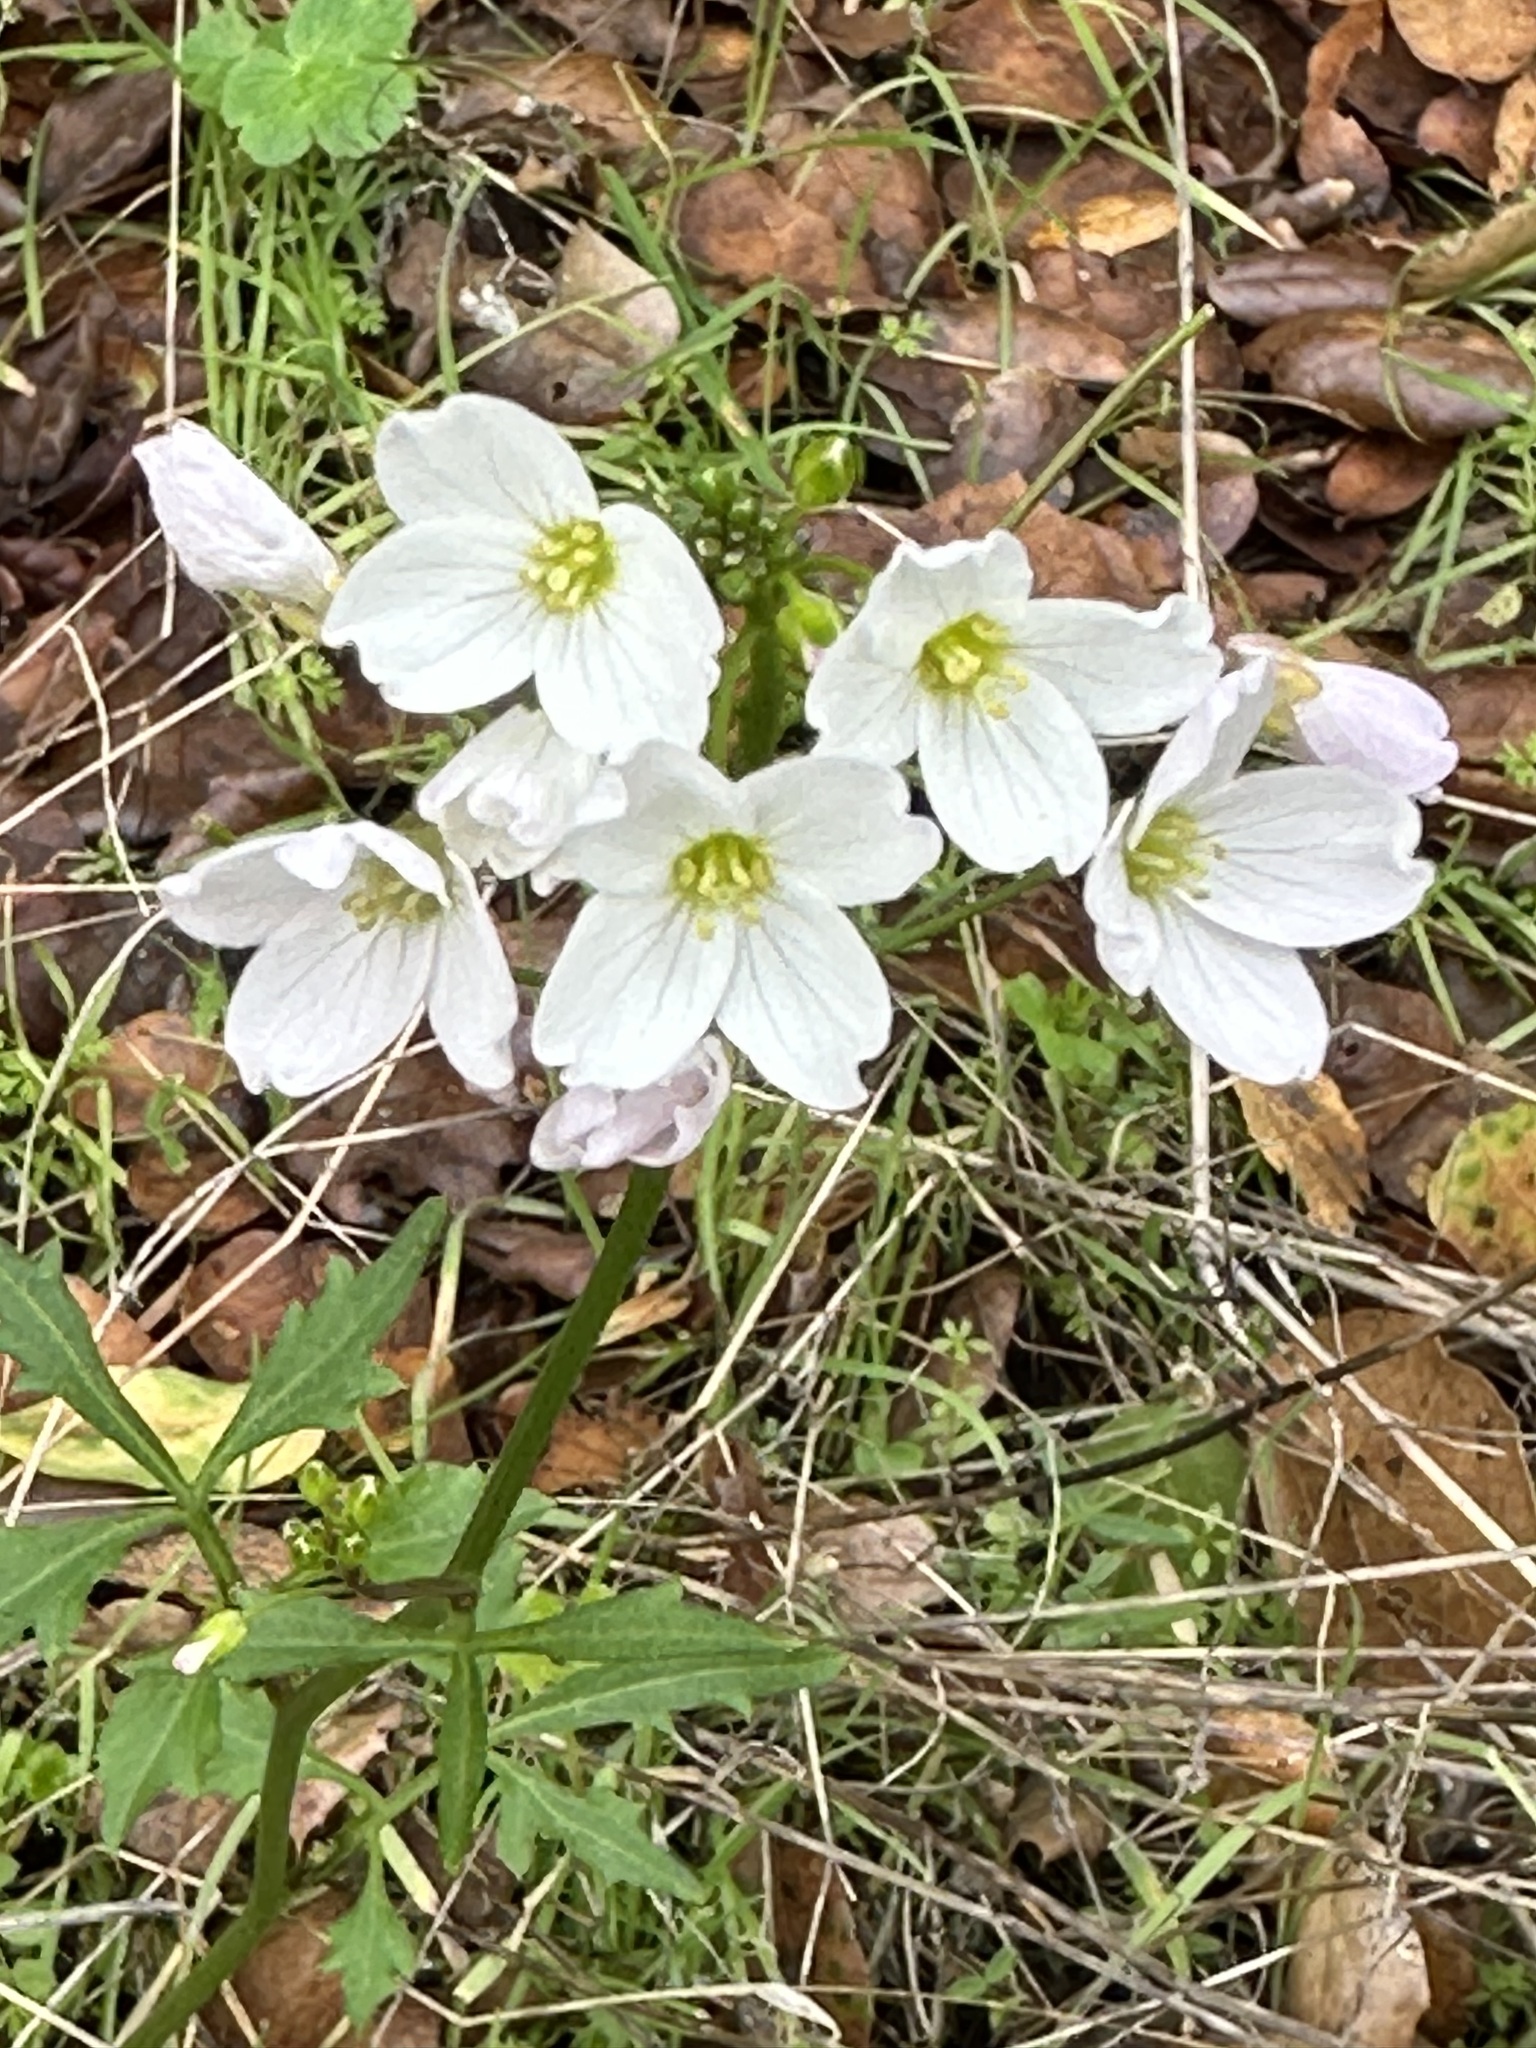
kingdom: Plantae
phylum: Tracheophyta
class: Magnoliopsida
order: Brassicales
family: Brassicaceae
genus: Cardamine
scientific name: Cardamine californica
